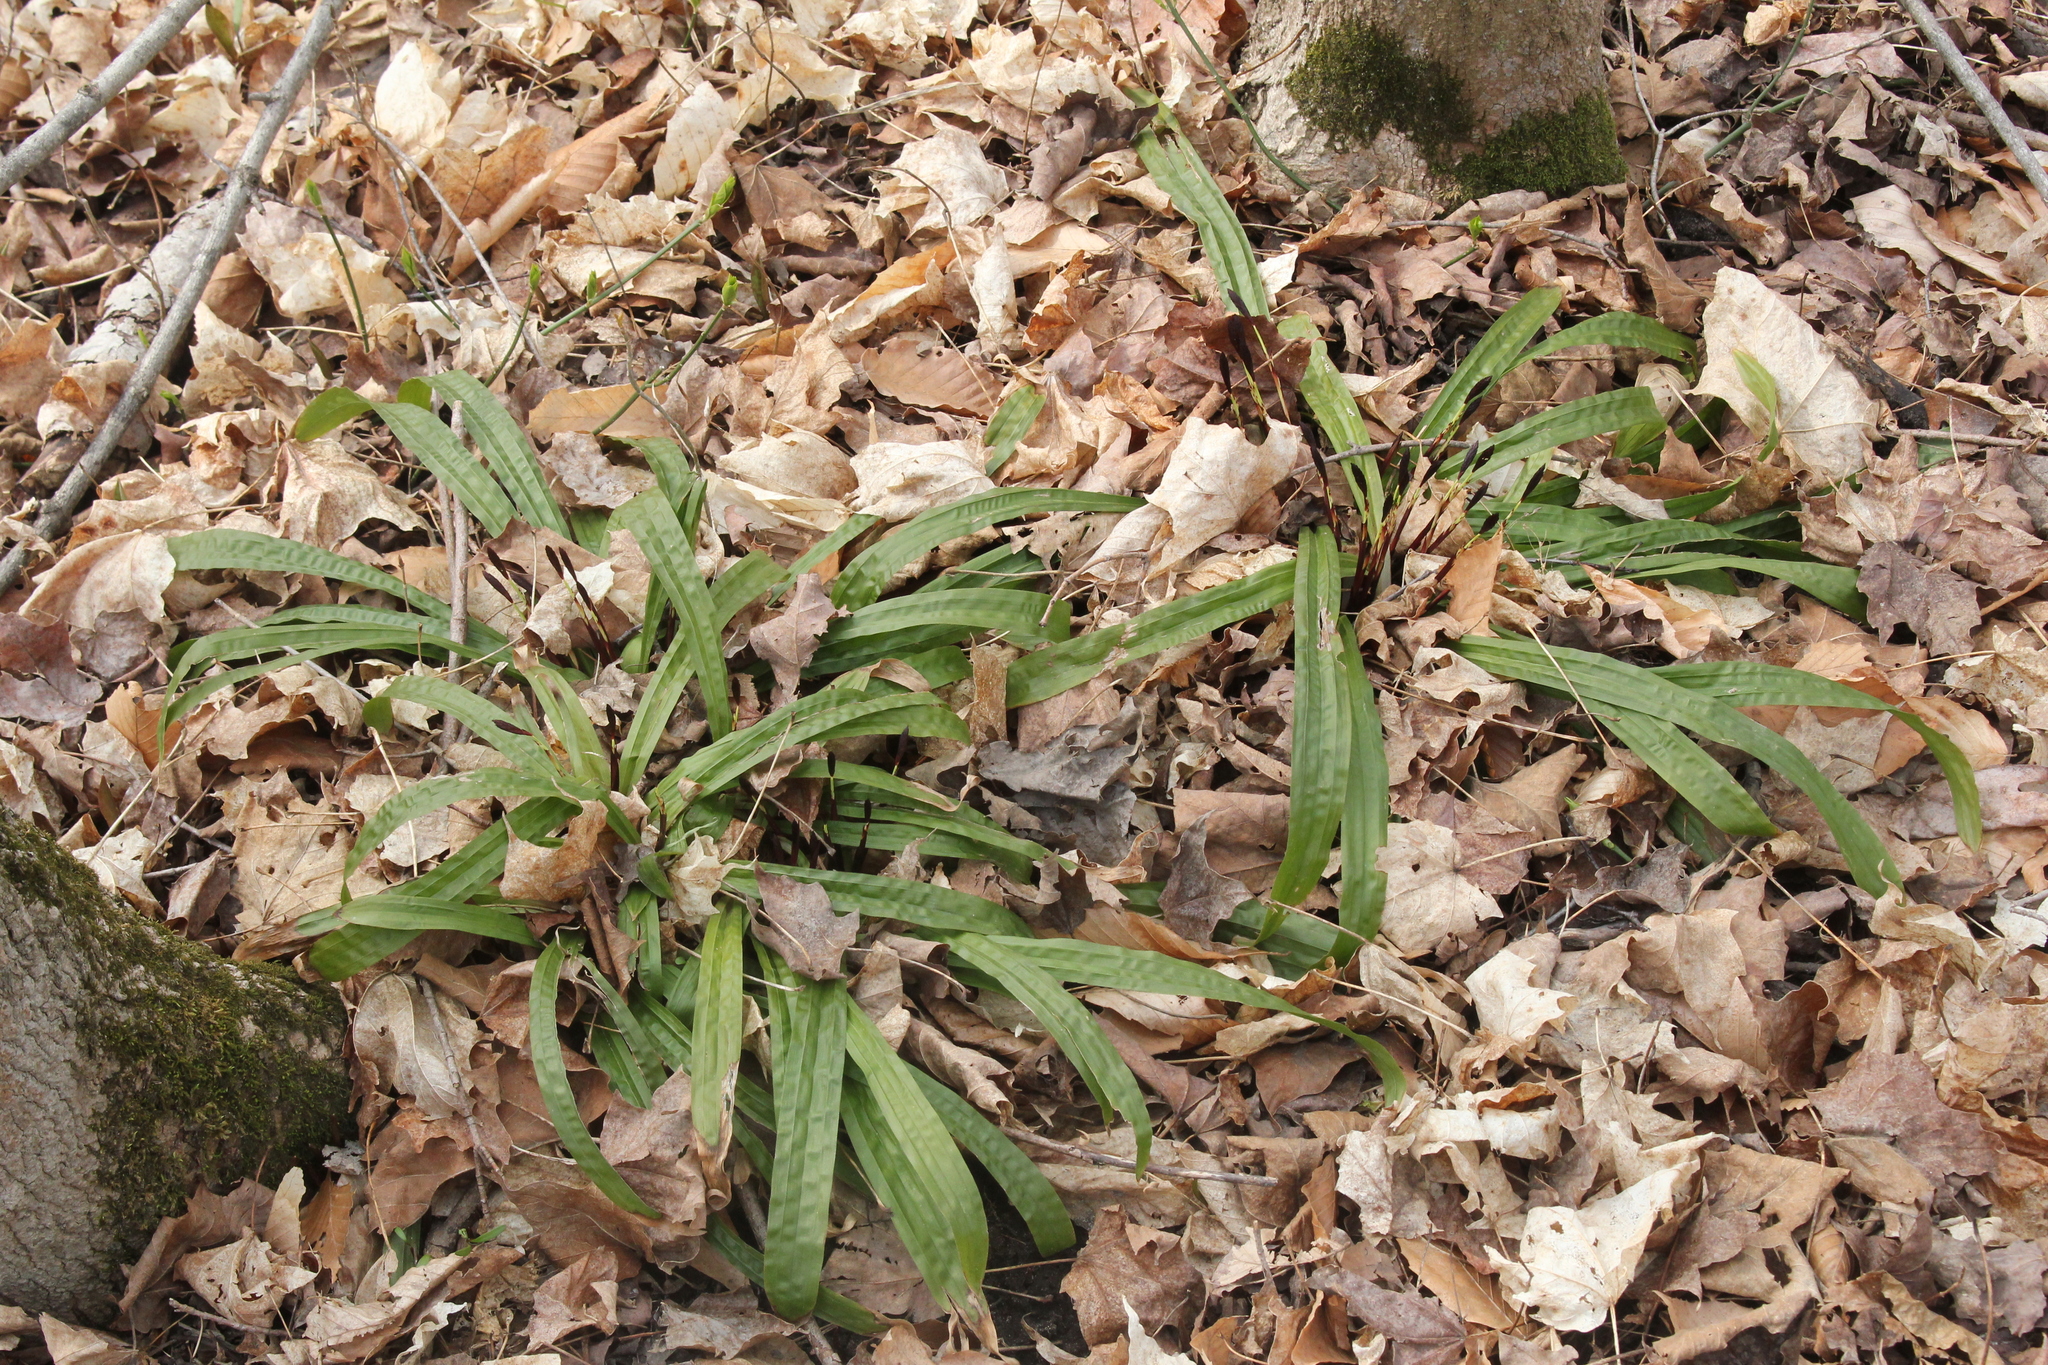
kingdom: Plantae
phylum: Tracheophyta
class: Liliopsida
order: Poales
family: Cyperaceae
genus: Carex
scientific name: Carex plantaginea
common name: Plantain-leaved sedge
